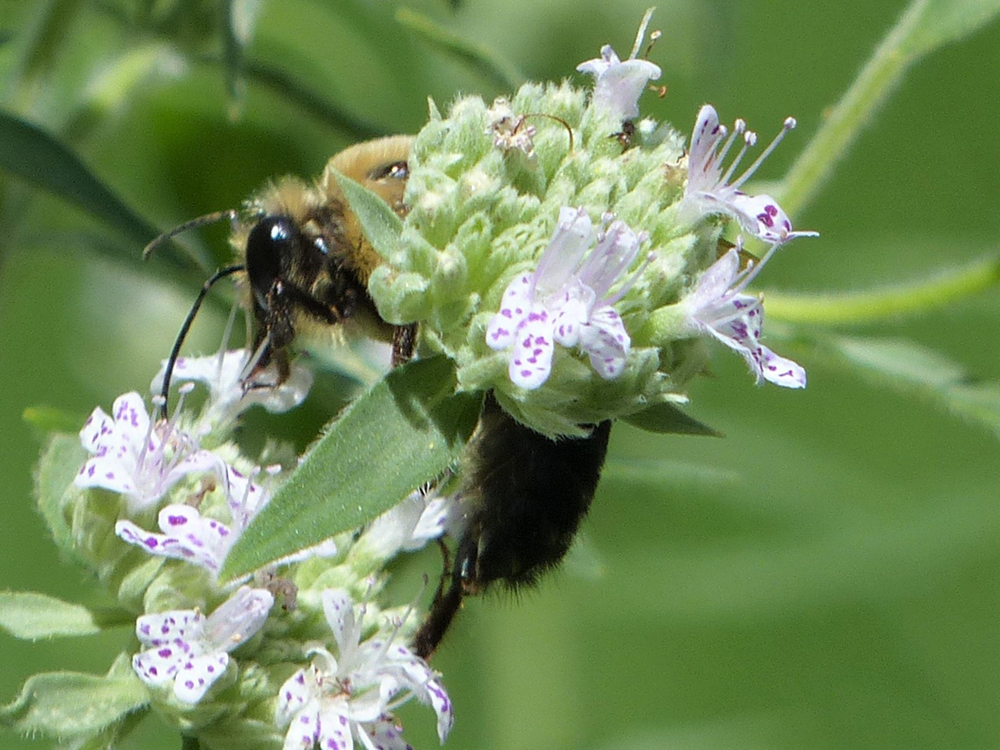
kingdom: Animalia
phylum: Arthropoda
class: Insecta
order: Hymenoptera
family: Apidae
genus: Bombus
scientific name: Bombus griseocollis
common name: Brown-belted bumble bee
